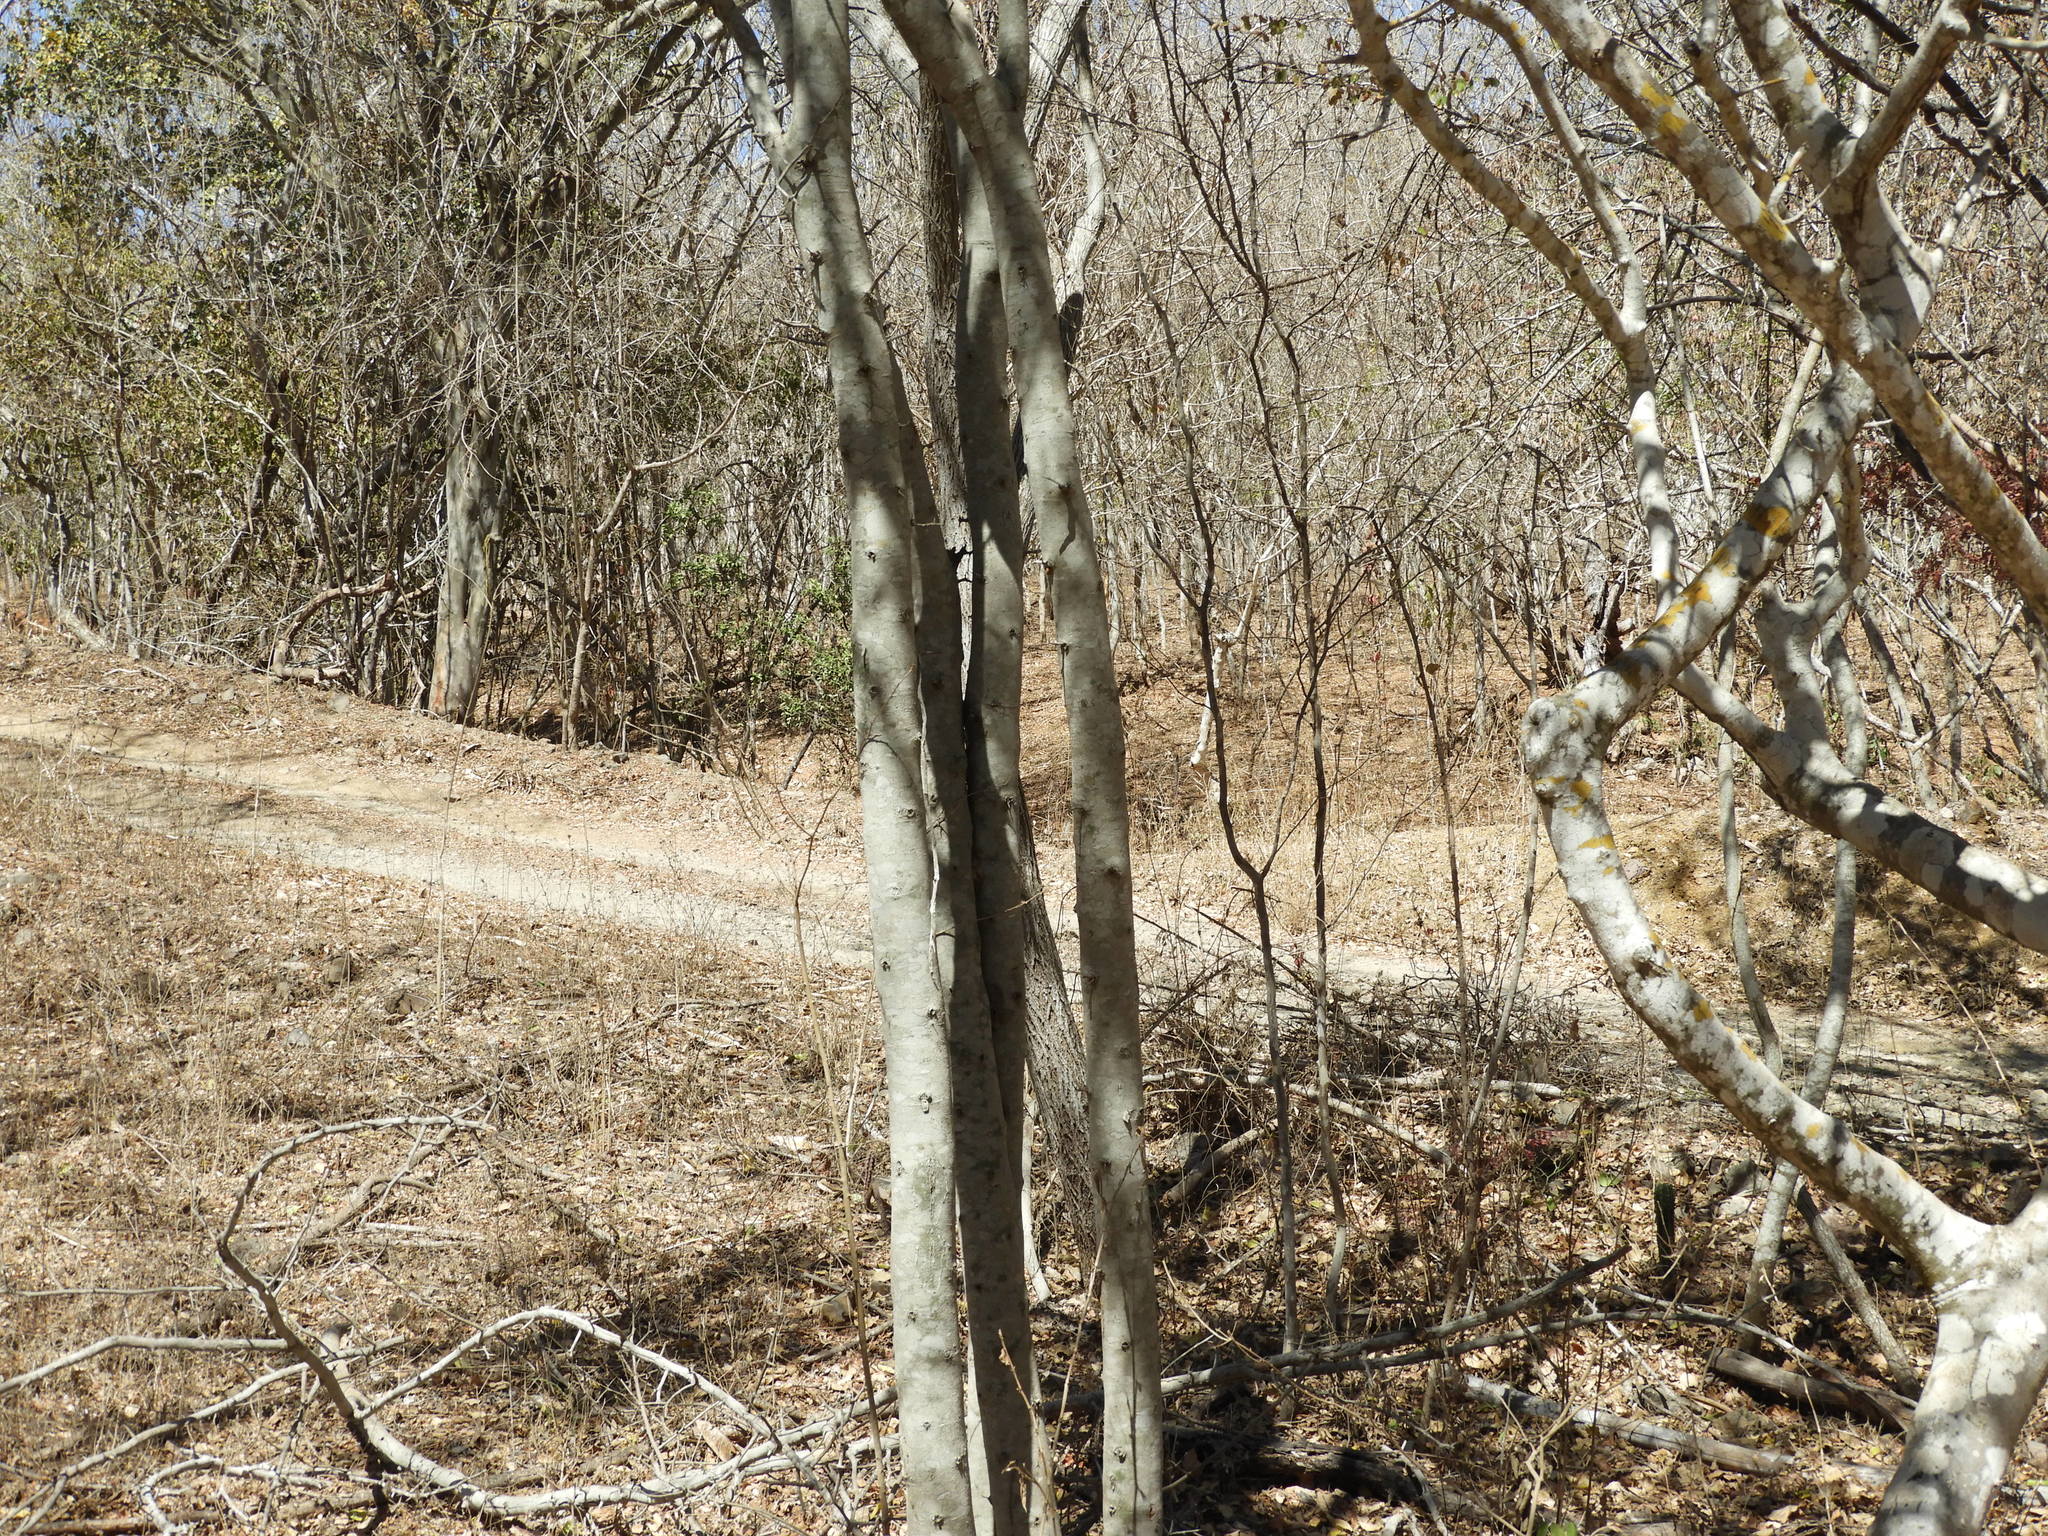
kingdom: Plantae
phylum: Tracheophyta
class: Magnoliopsida
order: Rosales
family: Rhamnaceae
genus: Sarcomphalus
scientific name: Sarcomphalus amole
